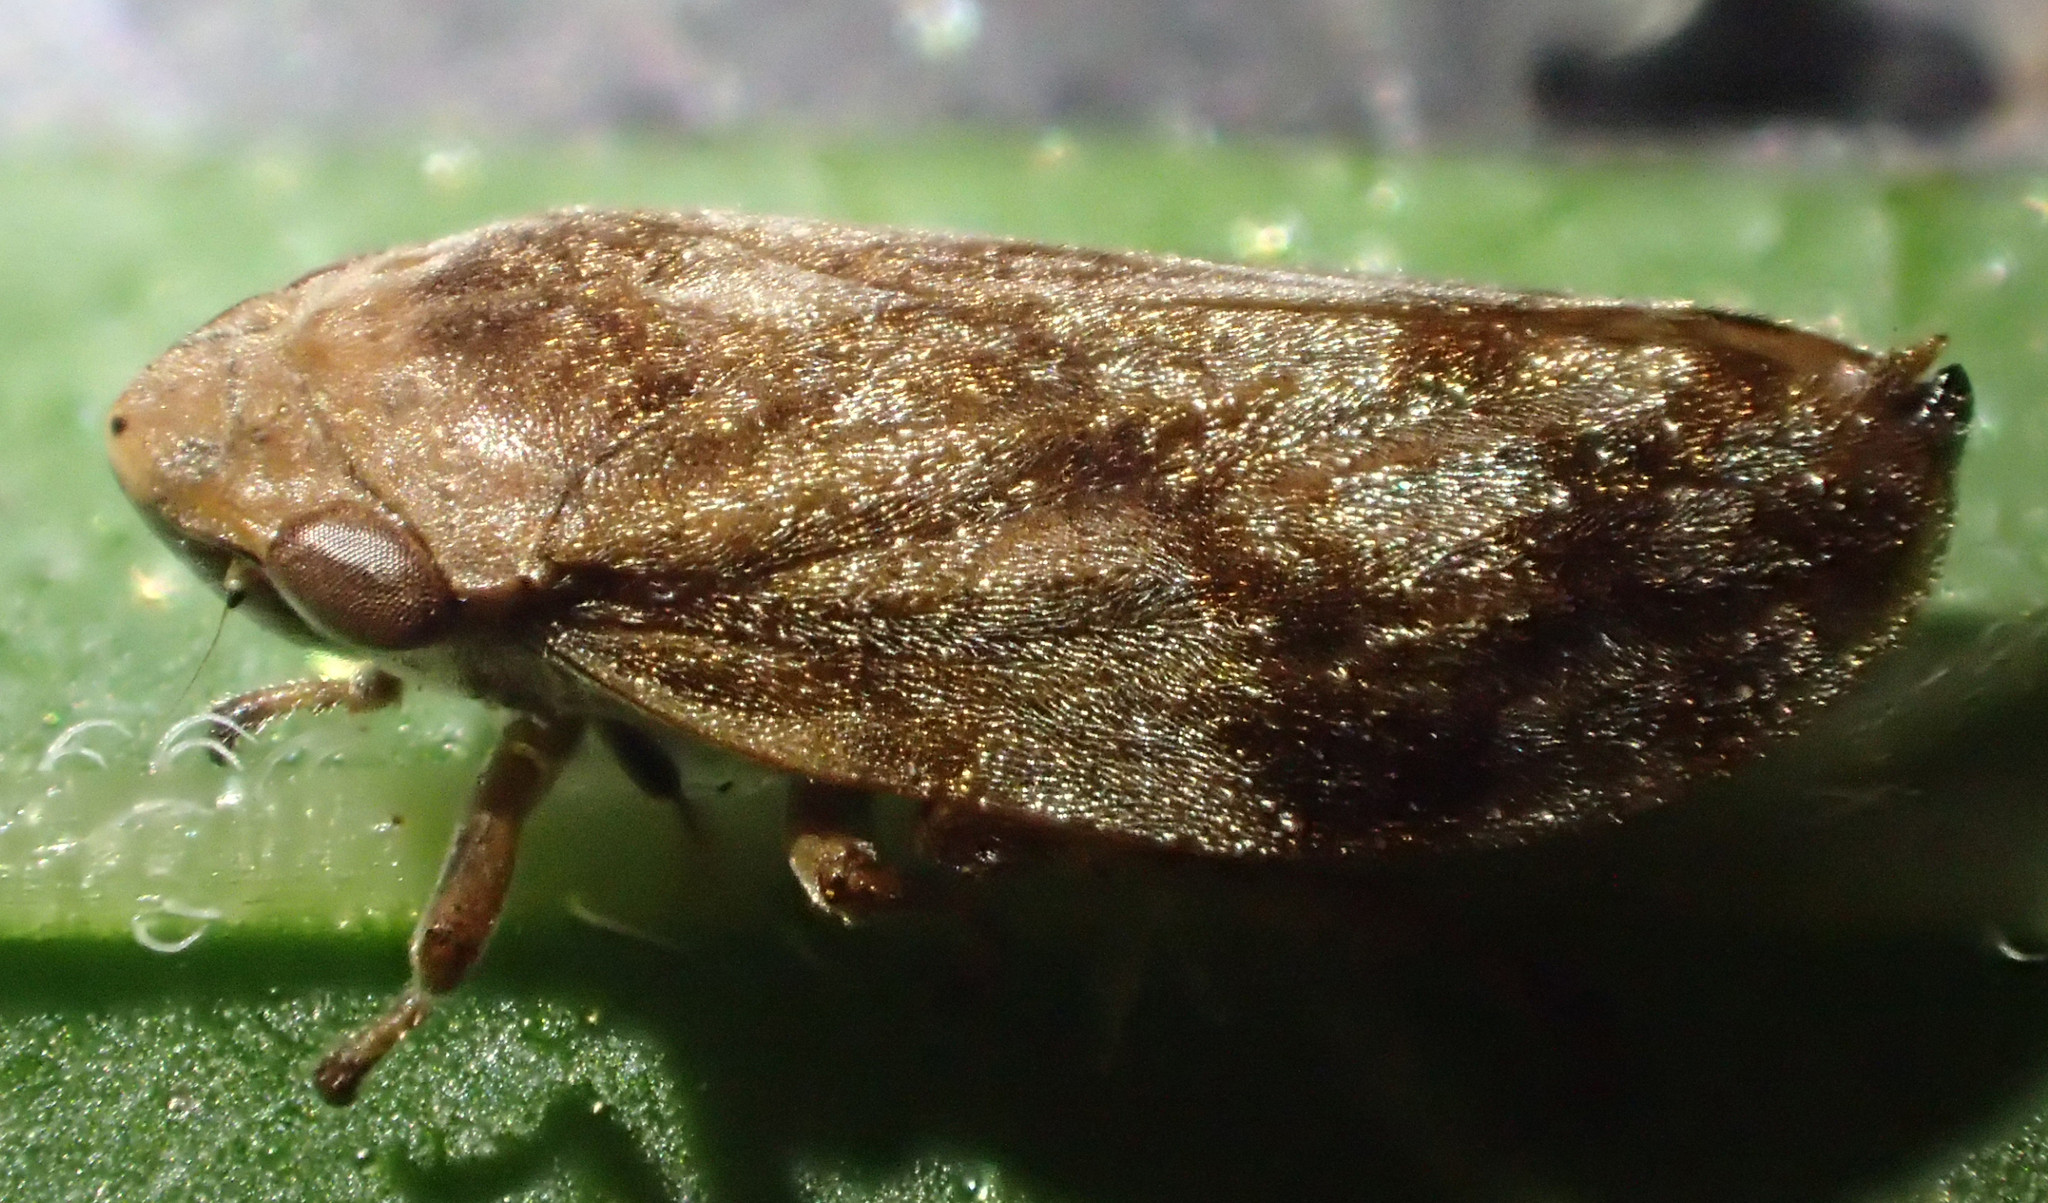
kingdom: Animalia
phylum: Arthropoda
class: Insecta
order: Hemiptera
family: Aphrophoridae
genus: Philaenus
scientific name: Philaenus spumarius
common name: Meadow spittlebug
